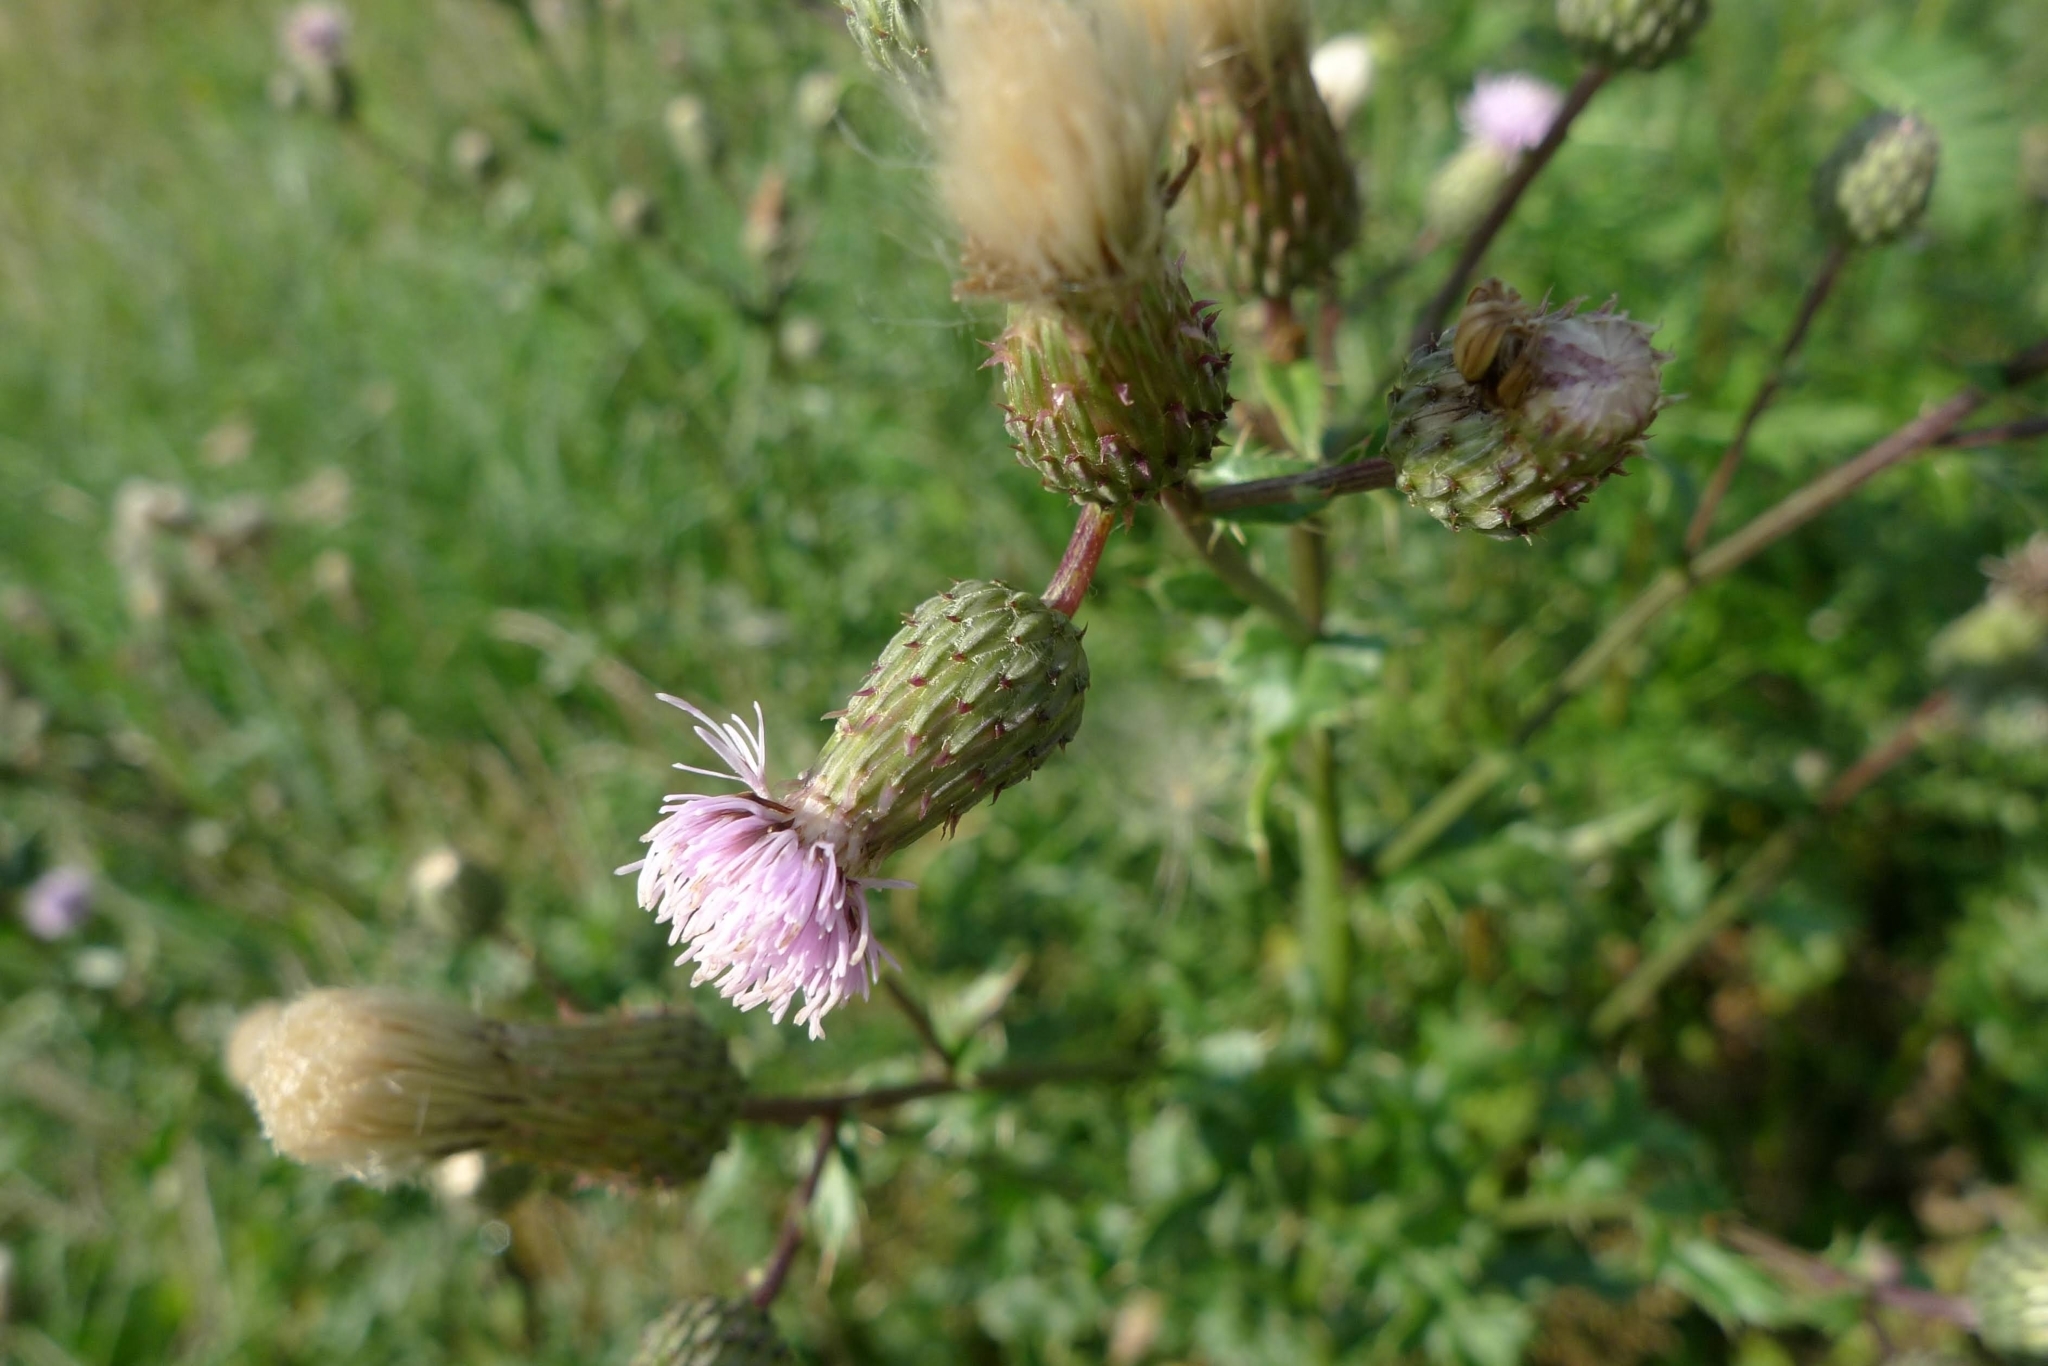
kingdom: Plantae
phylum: Tracheophyta
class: Magnoliopsida
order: Asterales
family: Asteraceae
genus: Cirsium
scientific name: Cirsium arvense
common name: Creeping thistle
